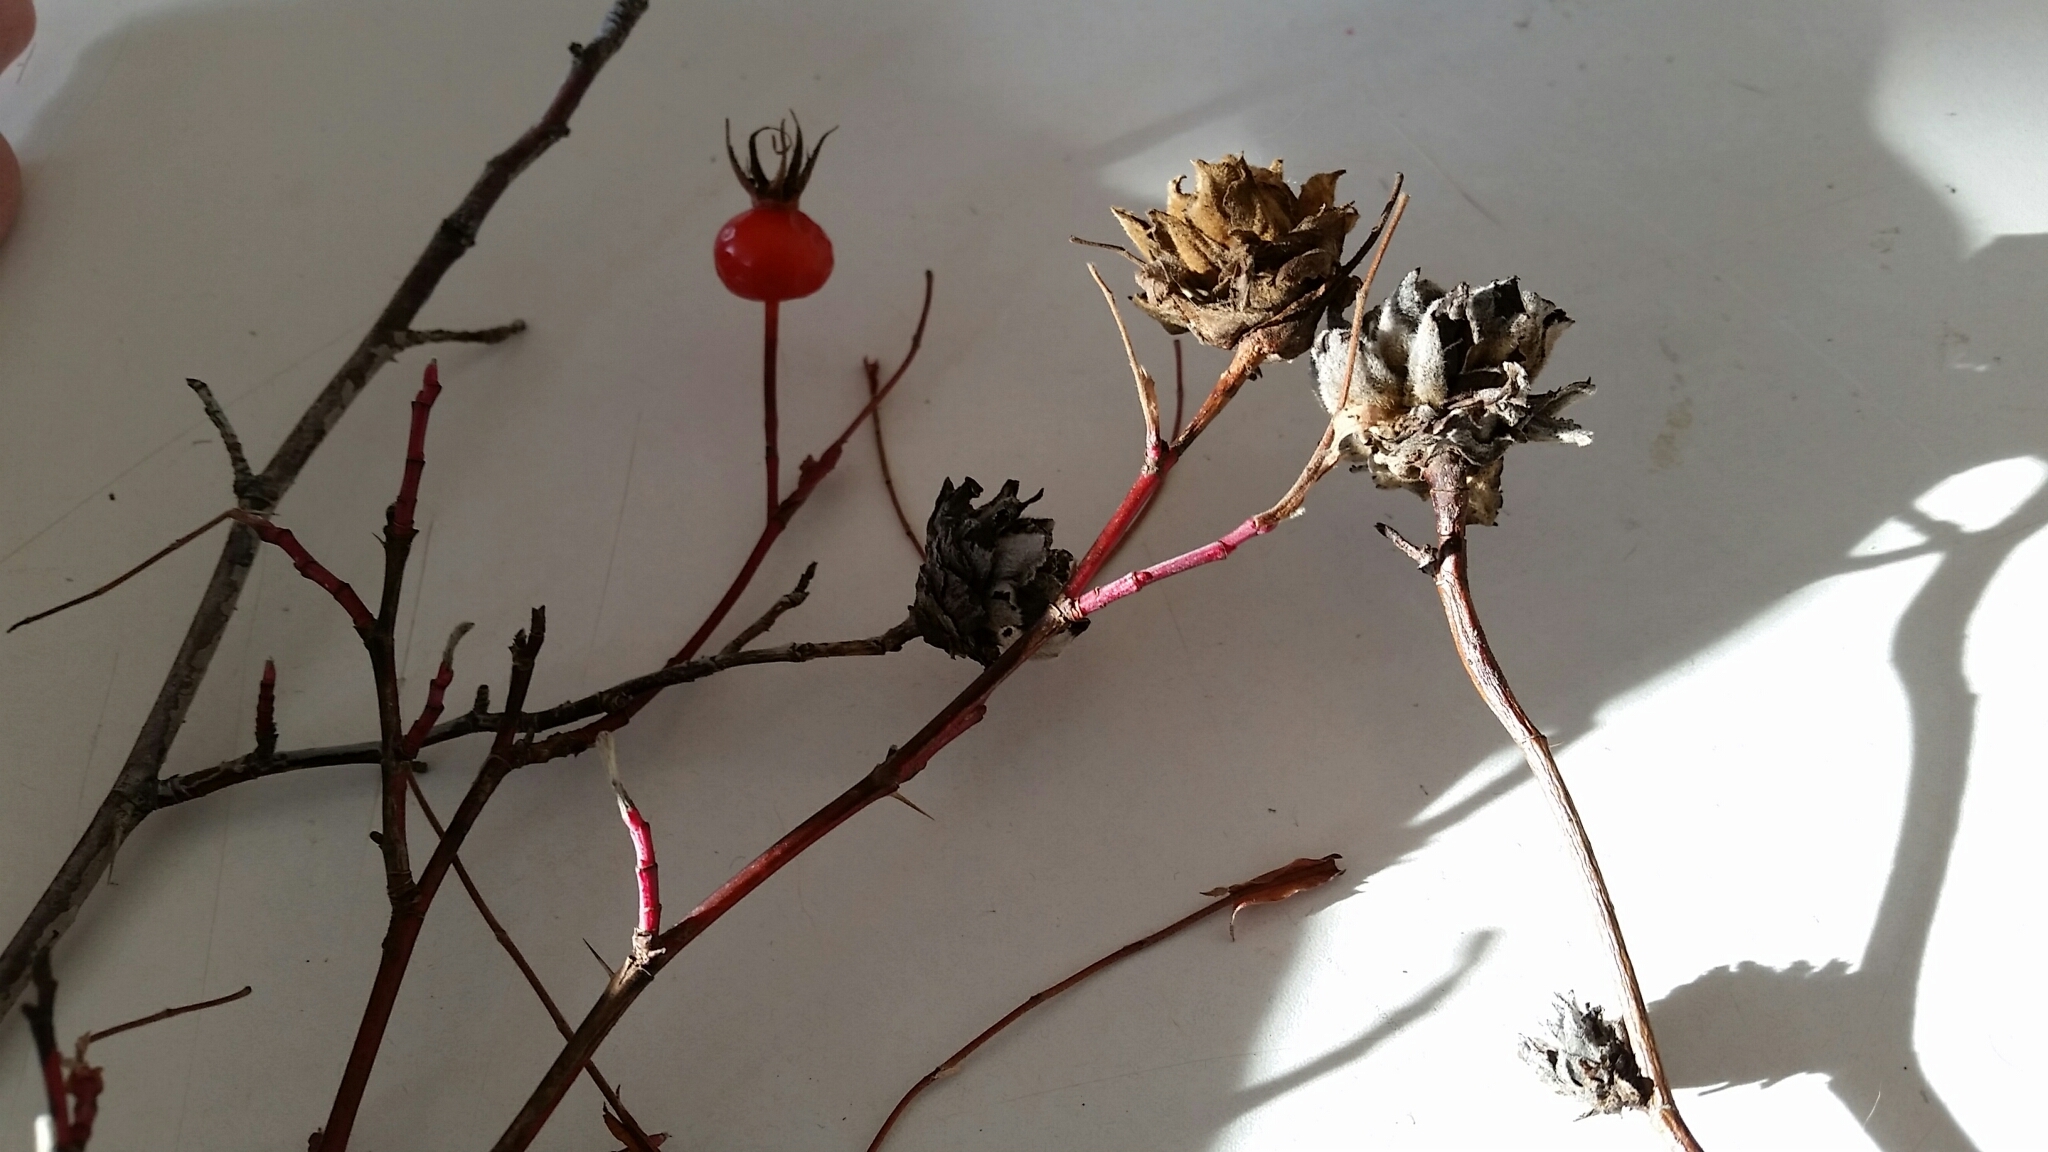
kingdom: Animalia
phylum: Arthropoda
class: Insecta
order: Diptera
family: Cecidomyiidae
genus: Rabdophaga
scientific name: Rabdophaga rosacea
